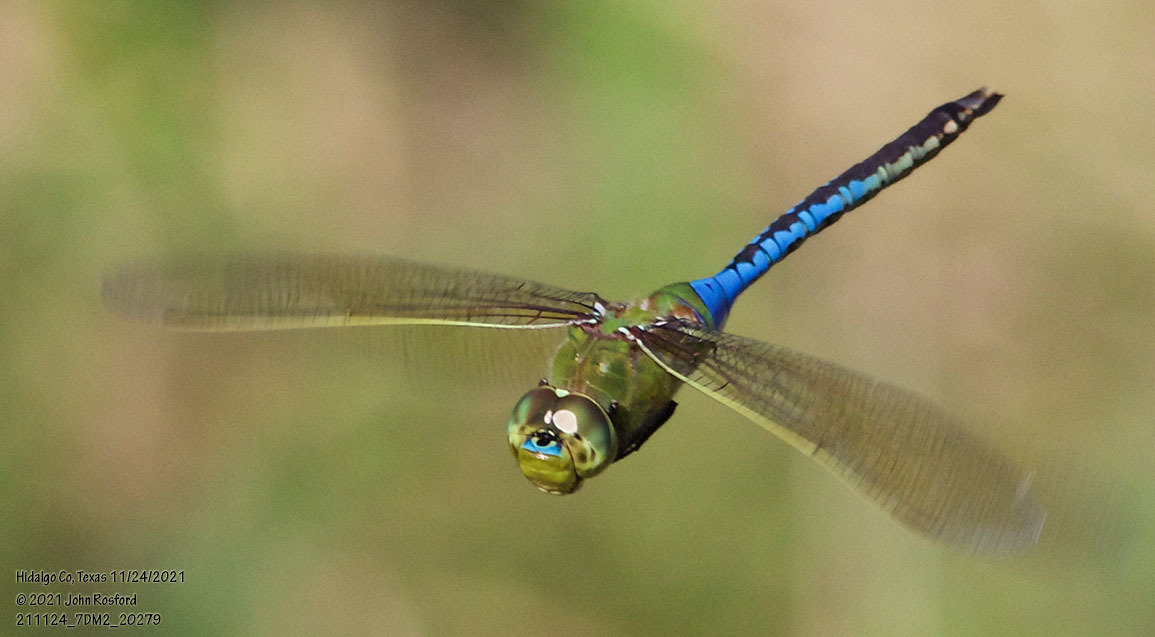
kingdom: Animalia
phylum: Arthropoda
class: Insecta
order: Odonata
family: Aeshnidae
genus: Anax
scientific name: Anax junius
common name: Common green darner
